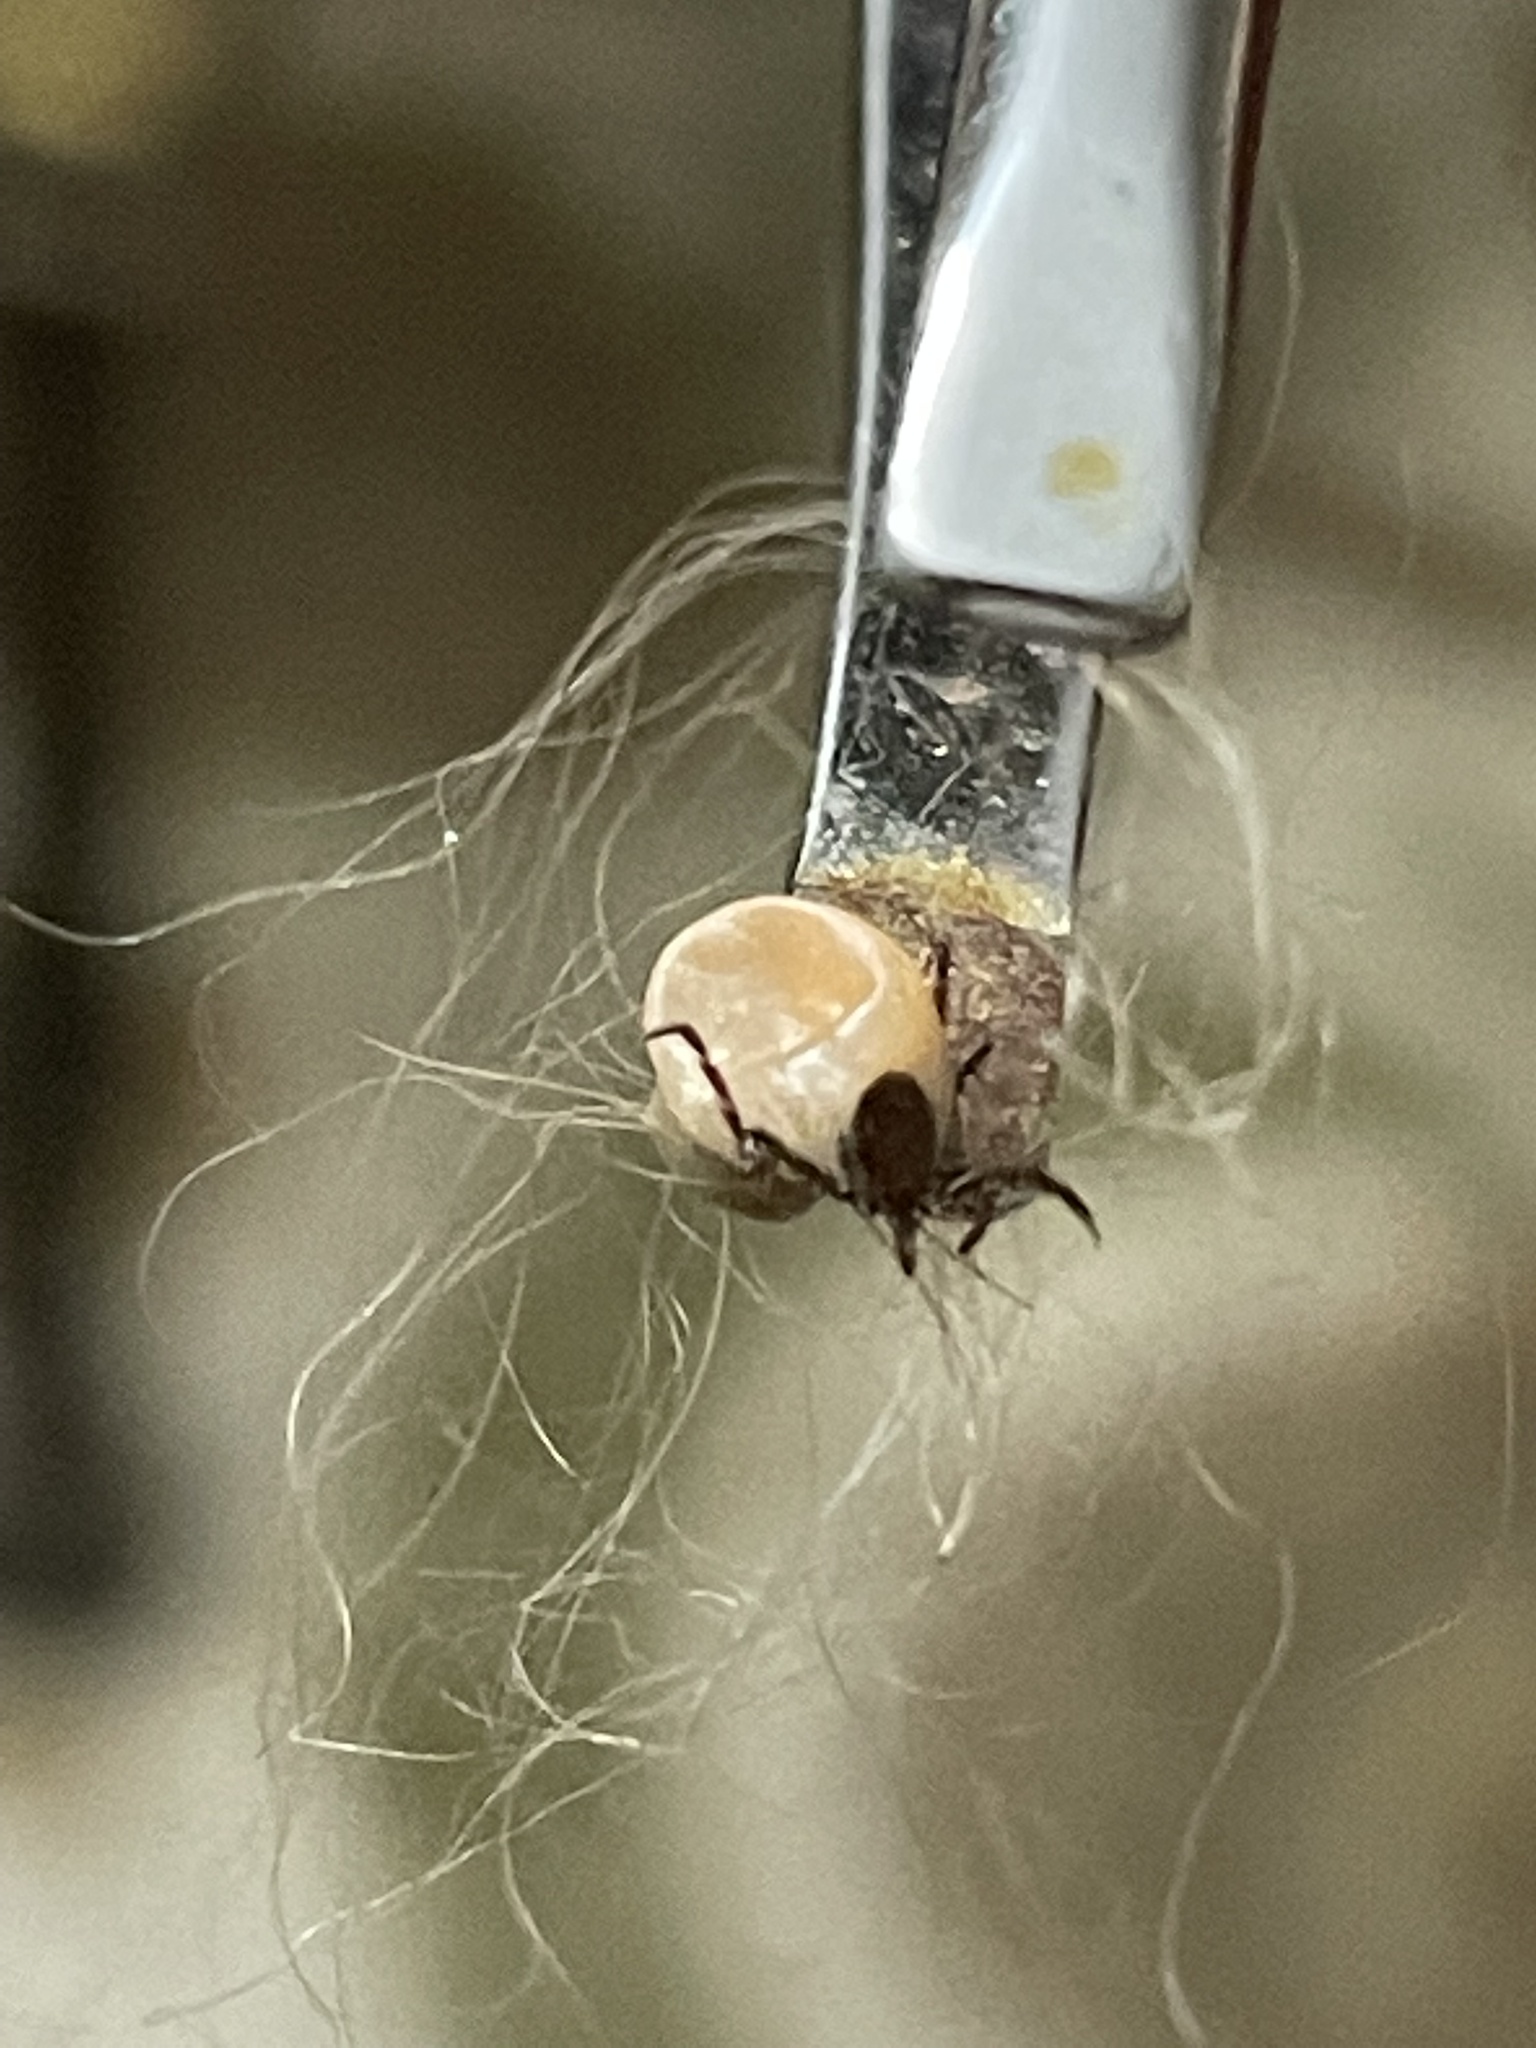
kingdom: Animalia
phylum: Arthropoda
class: Arachnida
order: Ixodida
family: Ixodidae
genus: Ixodes
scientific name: Ixodes scapularis
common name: Black legged tick
